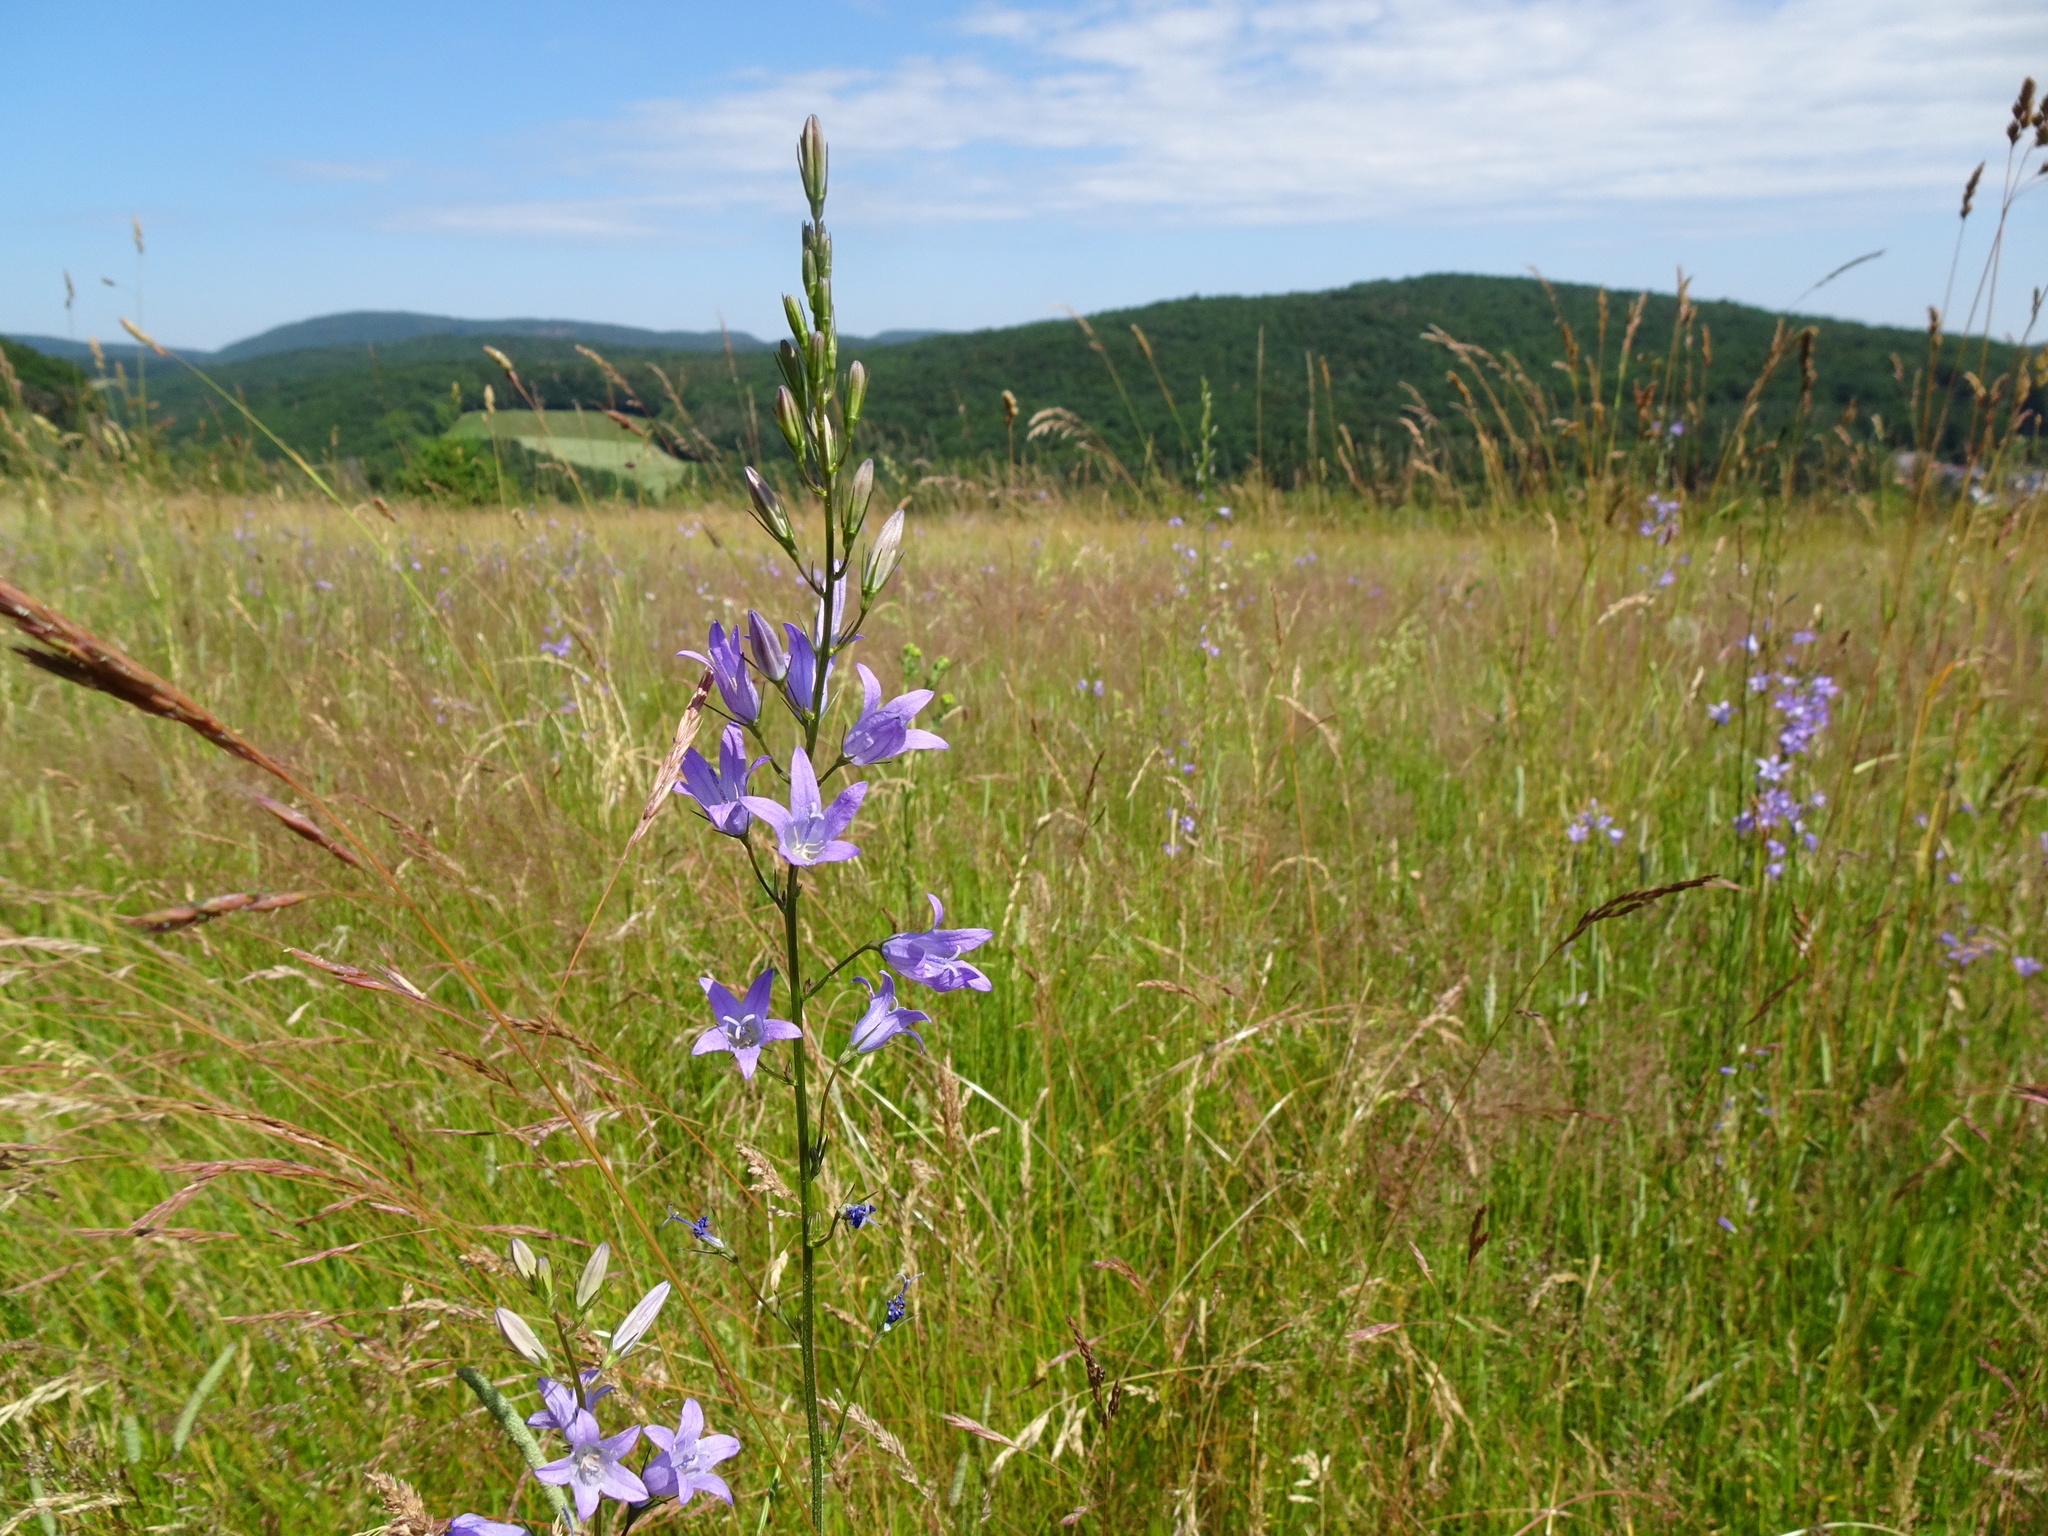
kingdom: Plantae
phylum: Tracheophyta
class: Magnoliopsida
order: Asterales
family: Campanulaceae
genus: Campanula
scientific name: Campanula rapunculus
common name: Rampion bellflower
